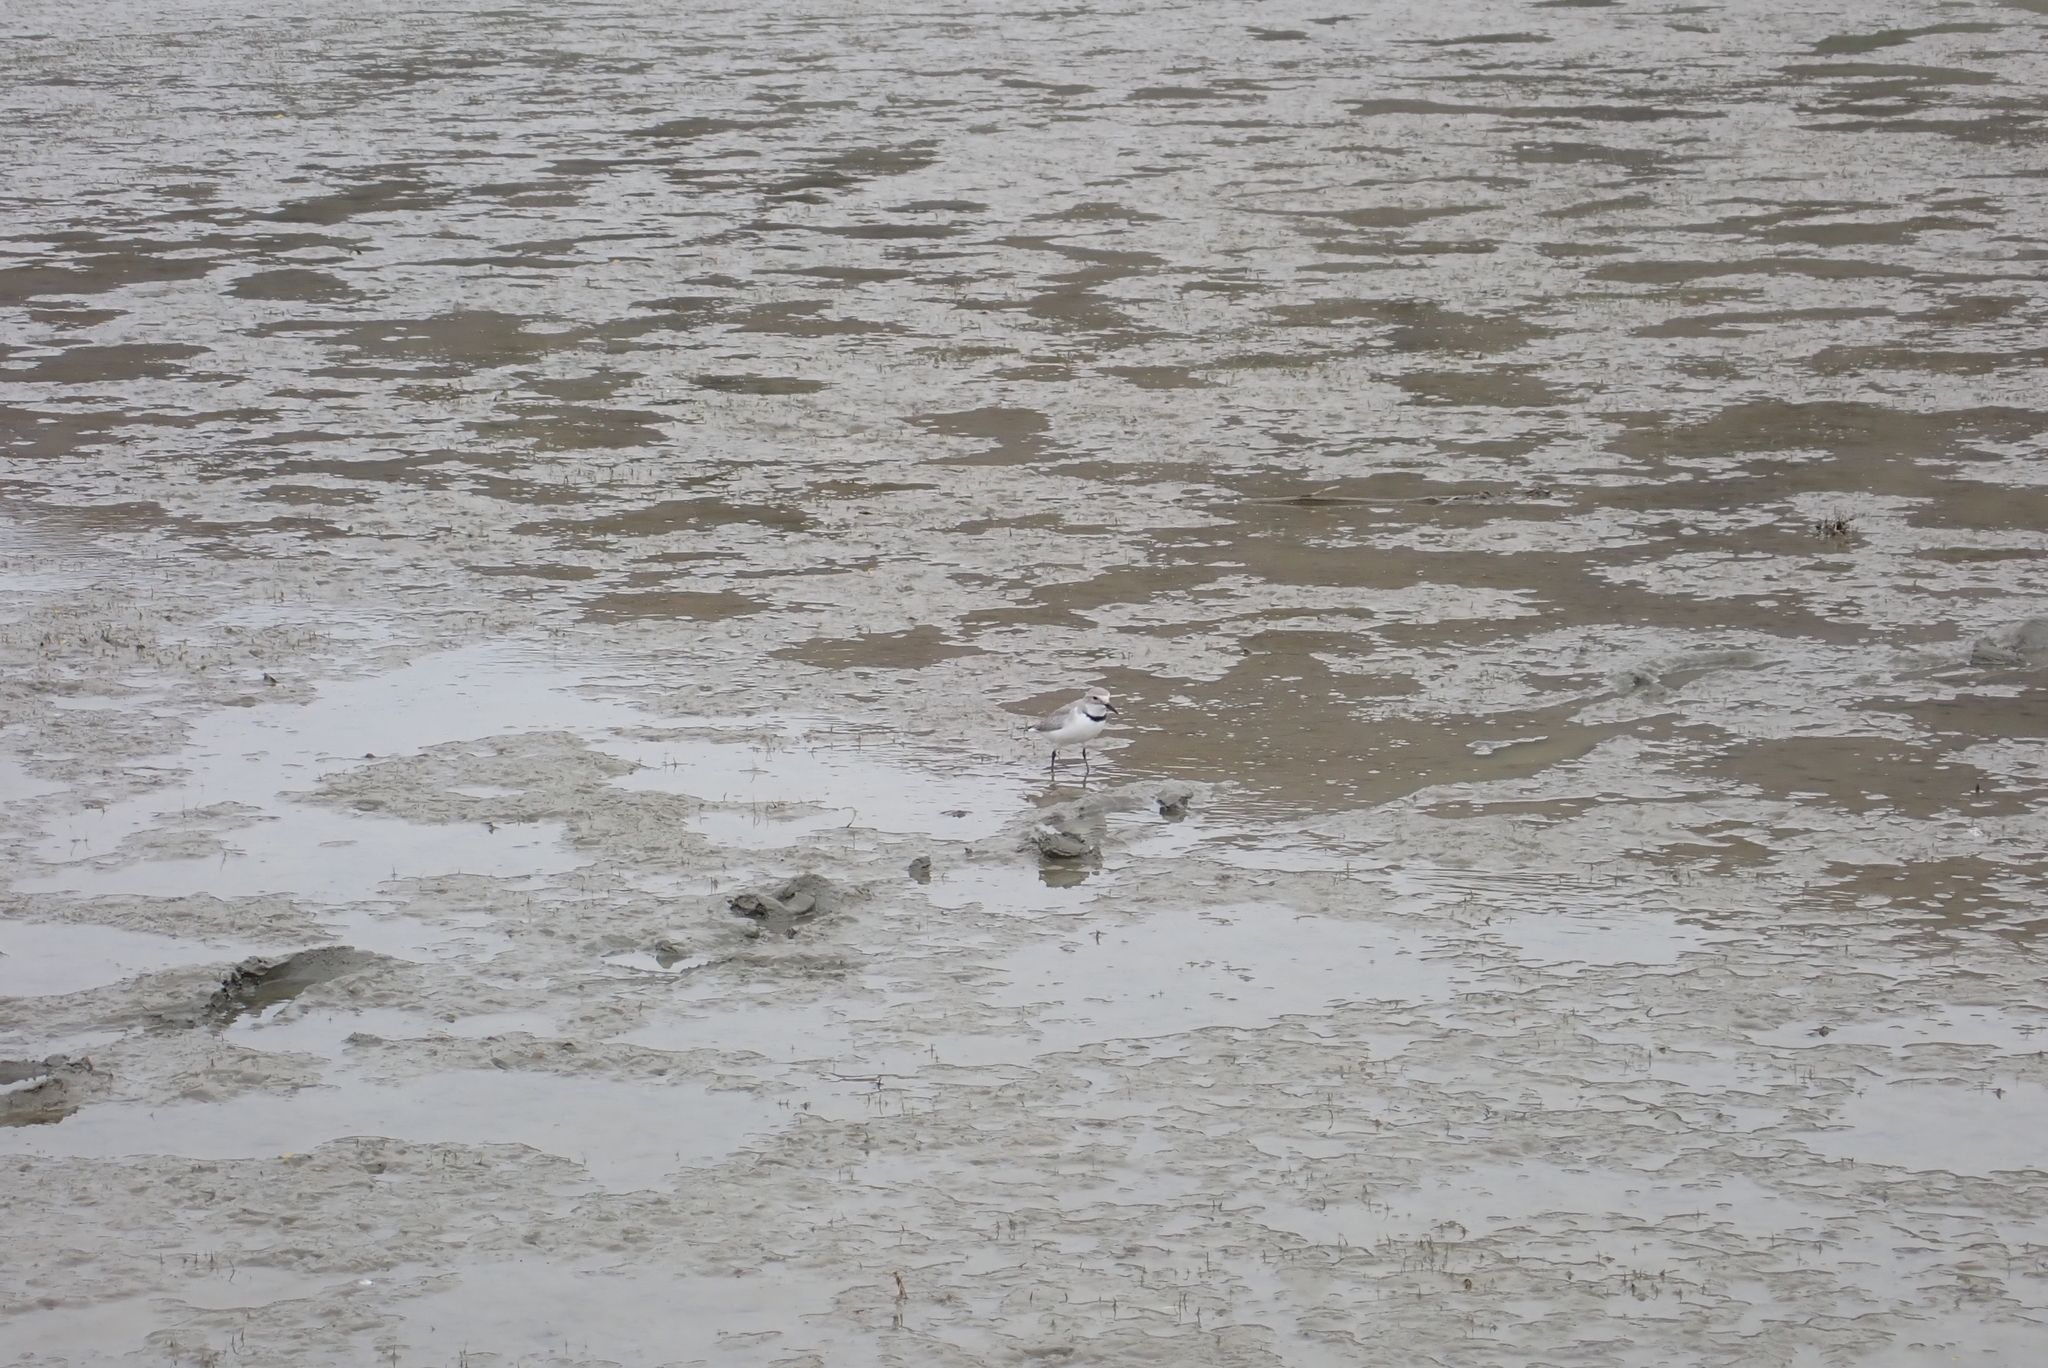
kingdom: Animalia
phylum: Chordata
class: Aves
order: Charadriiformes
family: Charadriidae
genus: Anarhynchus
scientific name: Anarhynchus frontalis
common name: Wrybill
